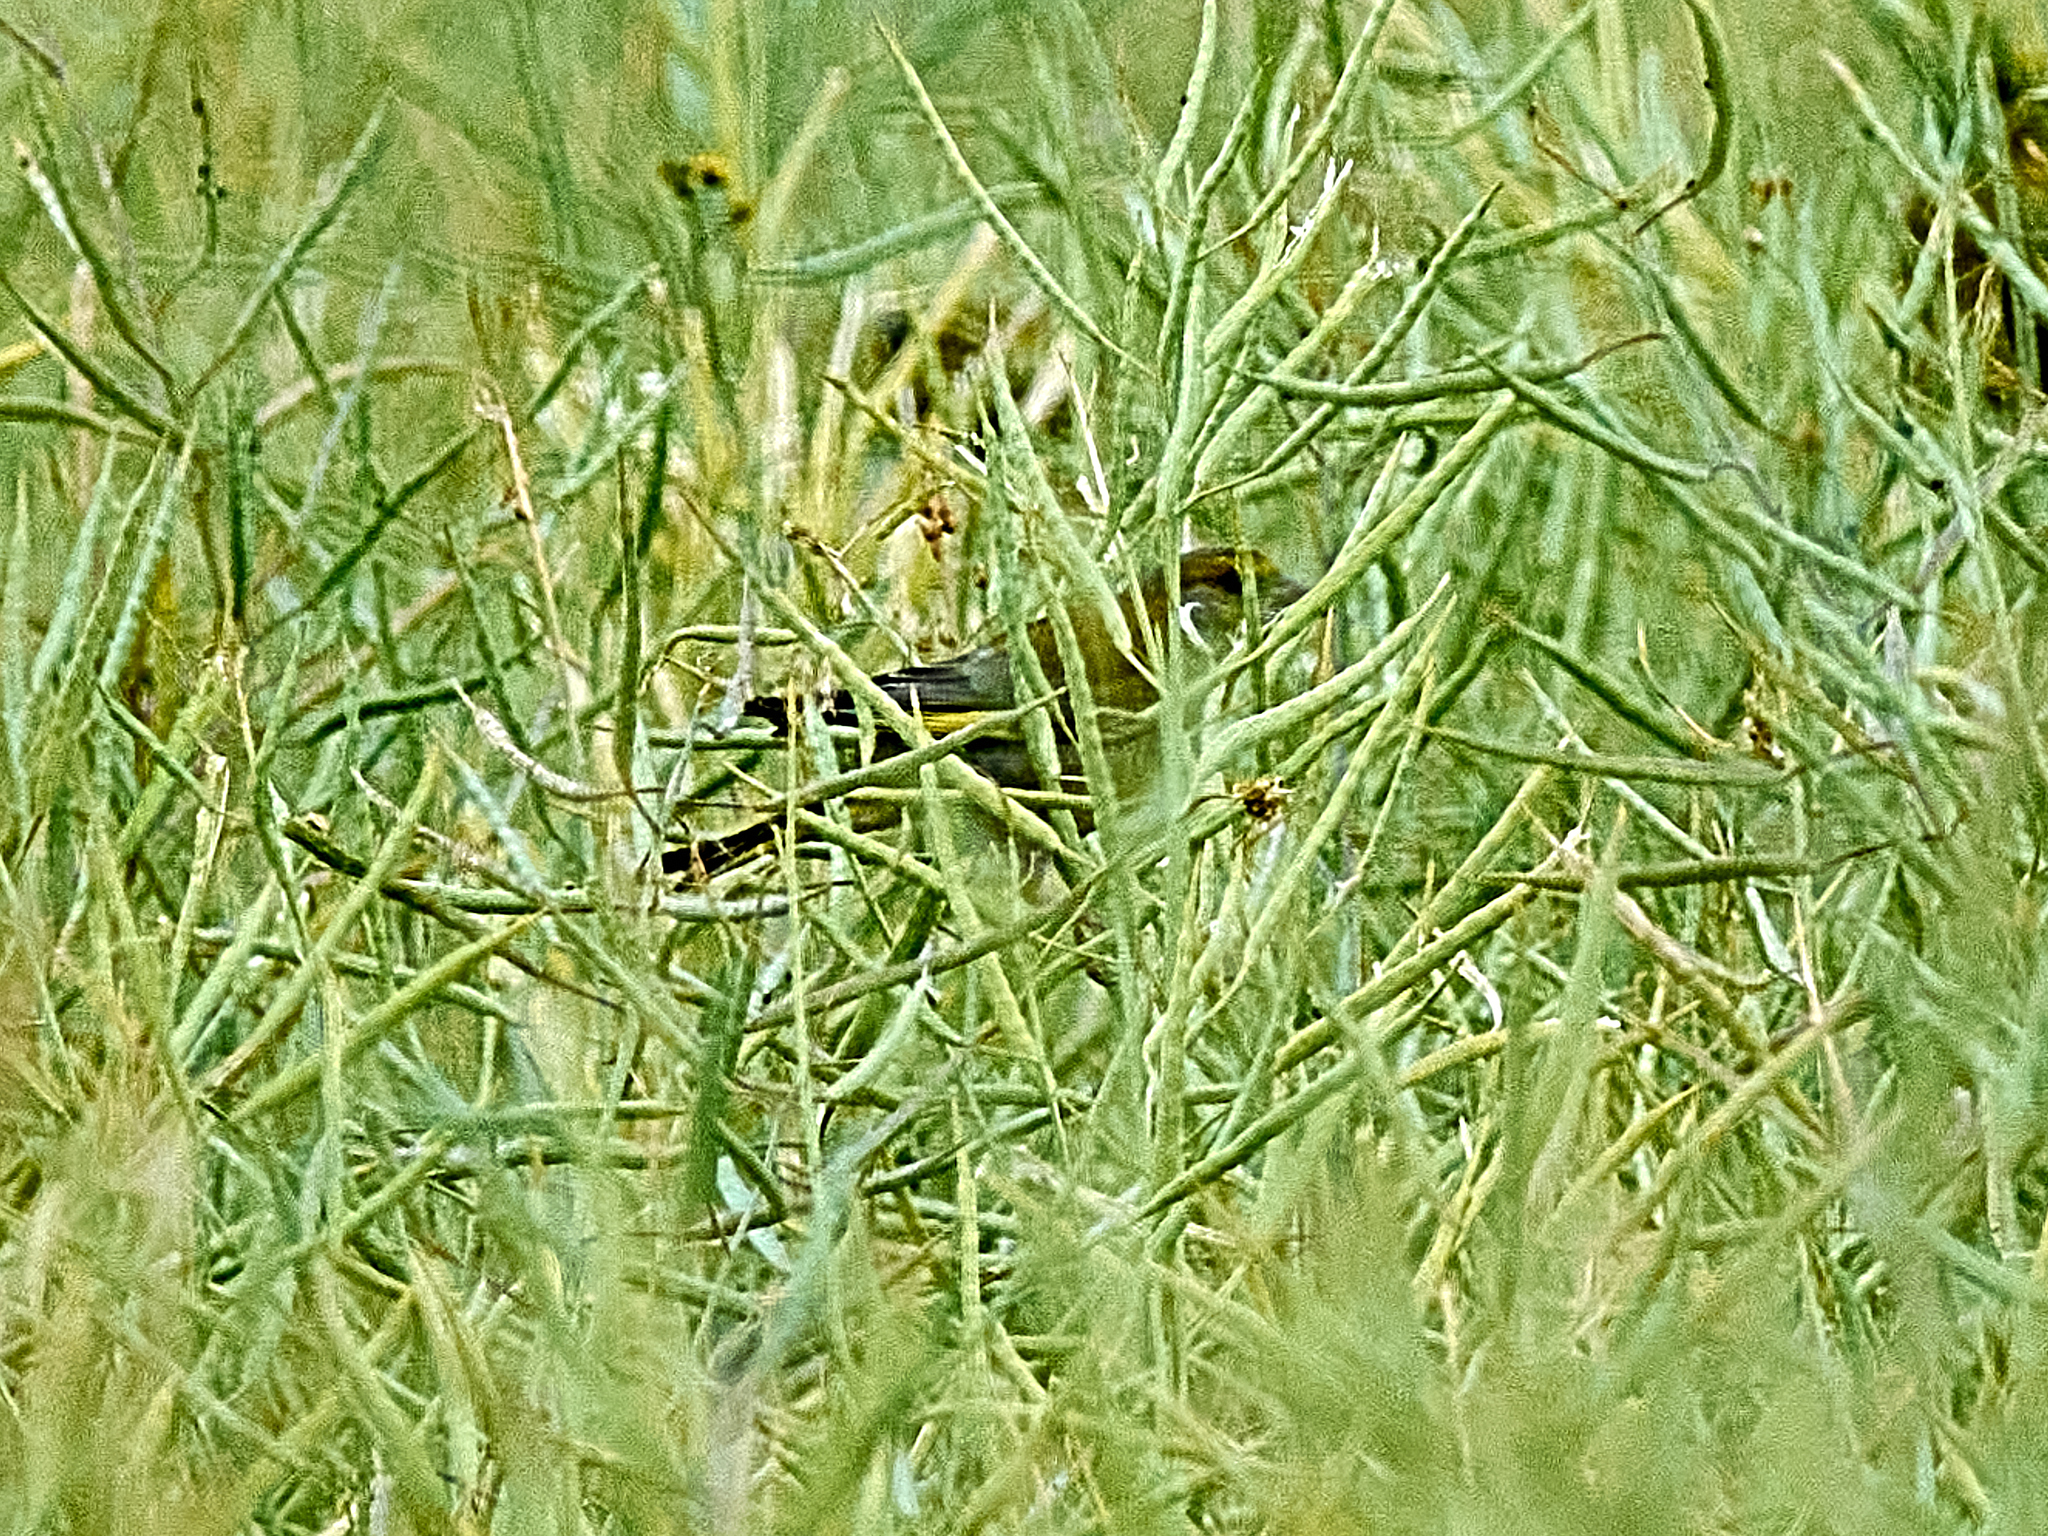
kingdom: Plantae
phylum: Tracheophyta
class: Liliopsida
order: Poales
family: Poaceae
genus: Chloris
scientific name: Chloris chloris
